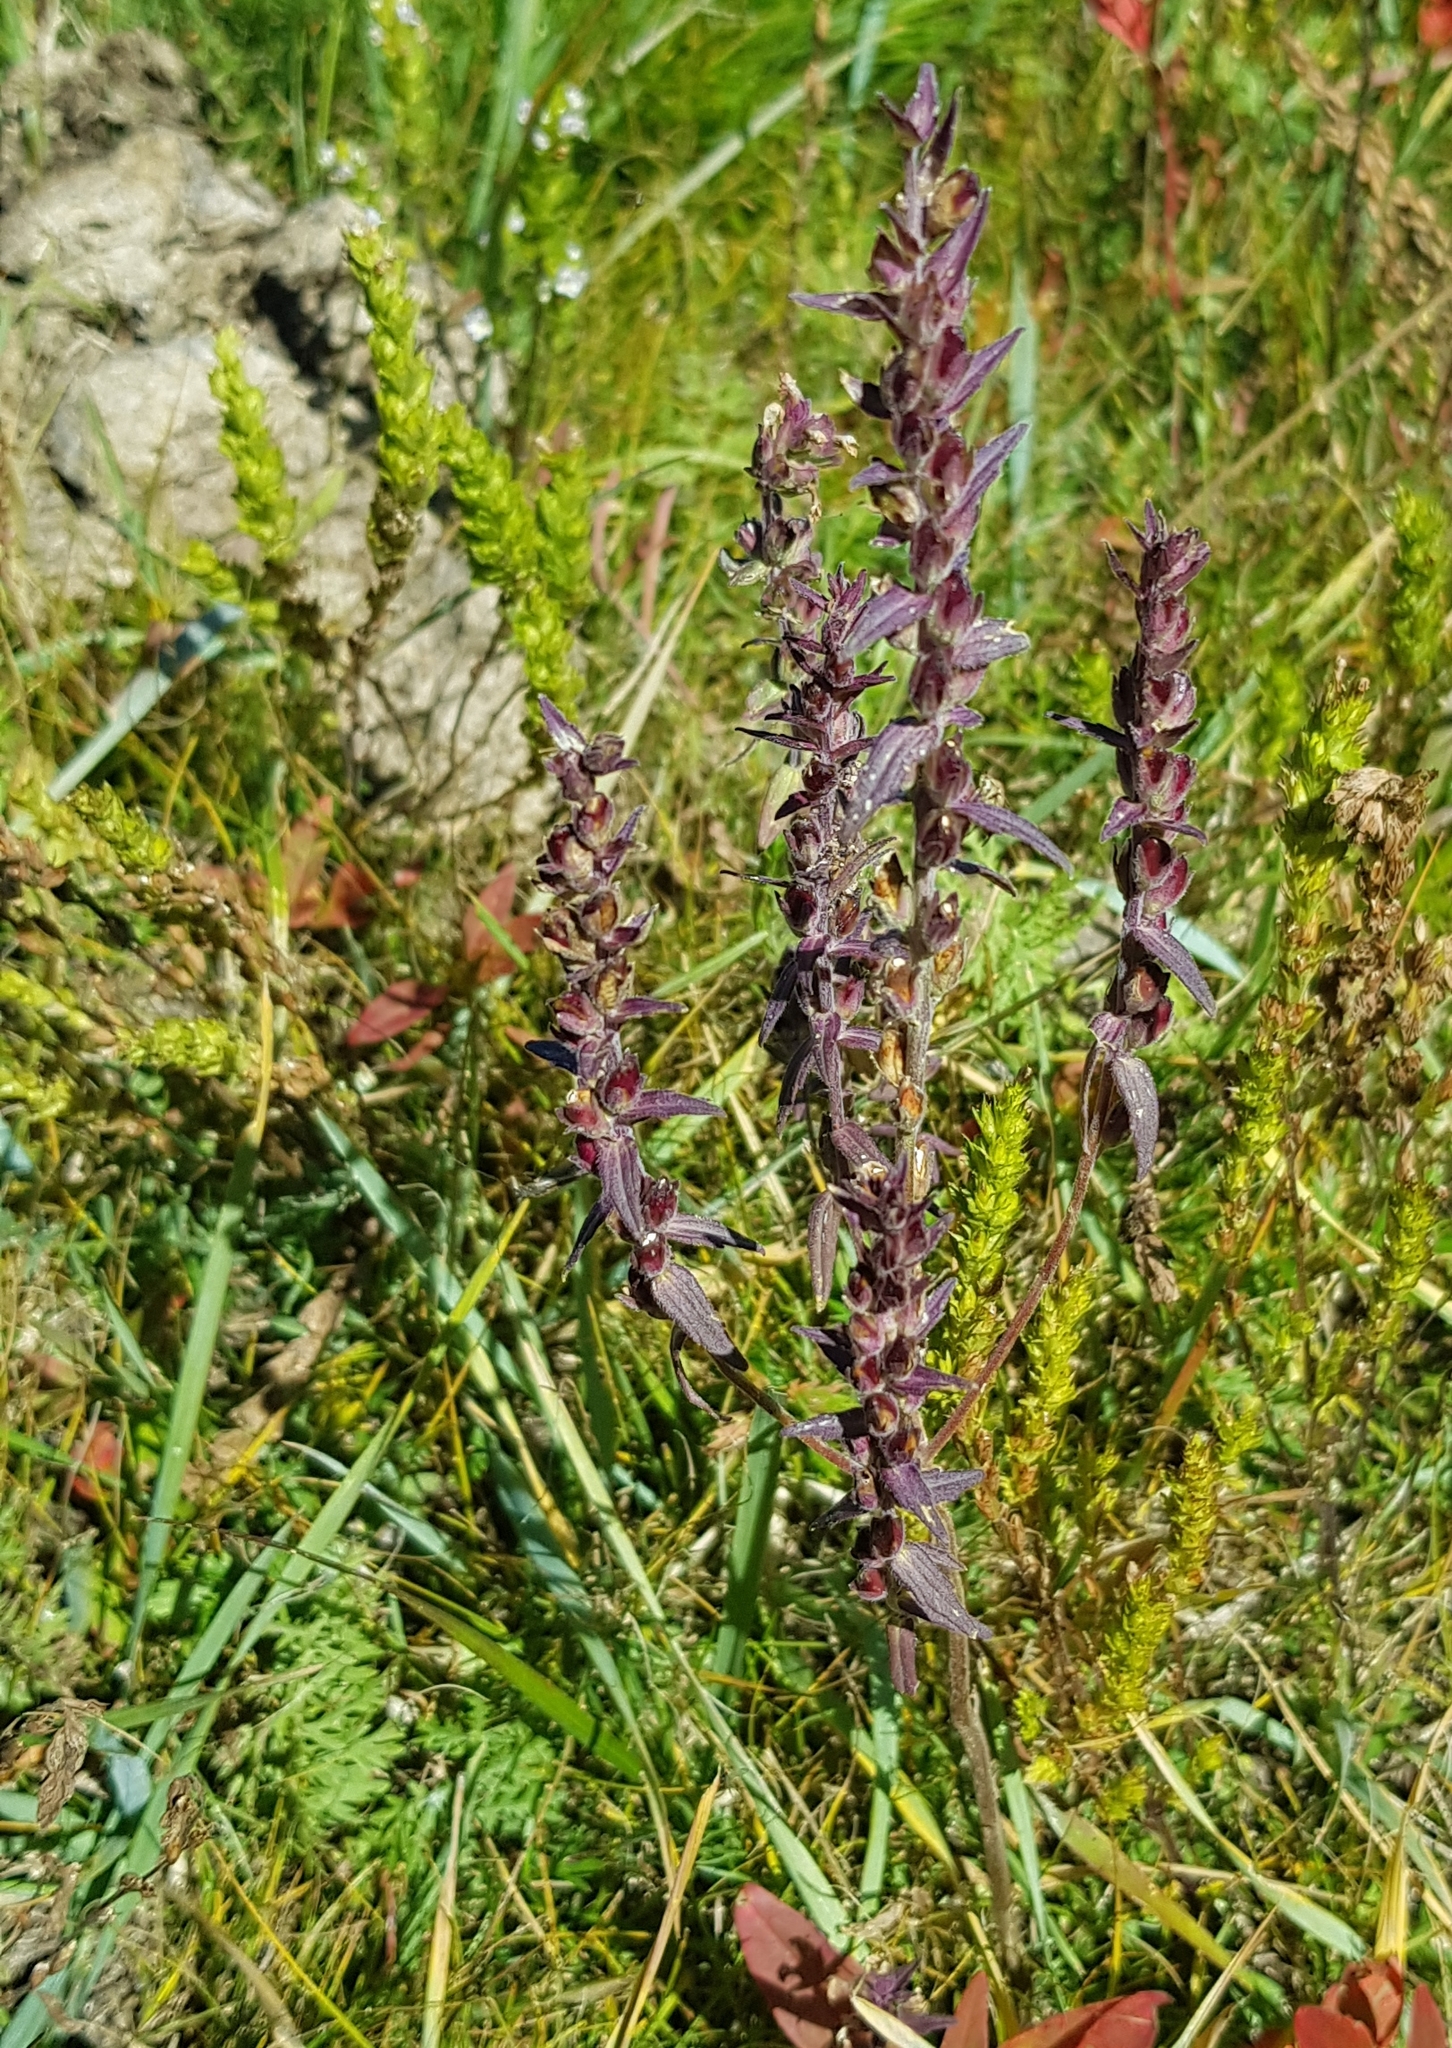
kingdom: Plantae
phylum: Tracheophyta
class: Magnoliopsida
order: Lamiales
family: Orobanchaceae
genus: Odontites
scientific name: Odontites vulgaris
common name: Broomrape
